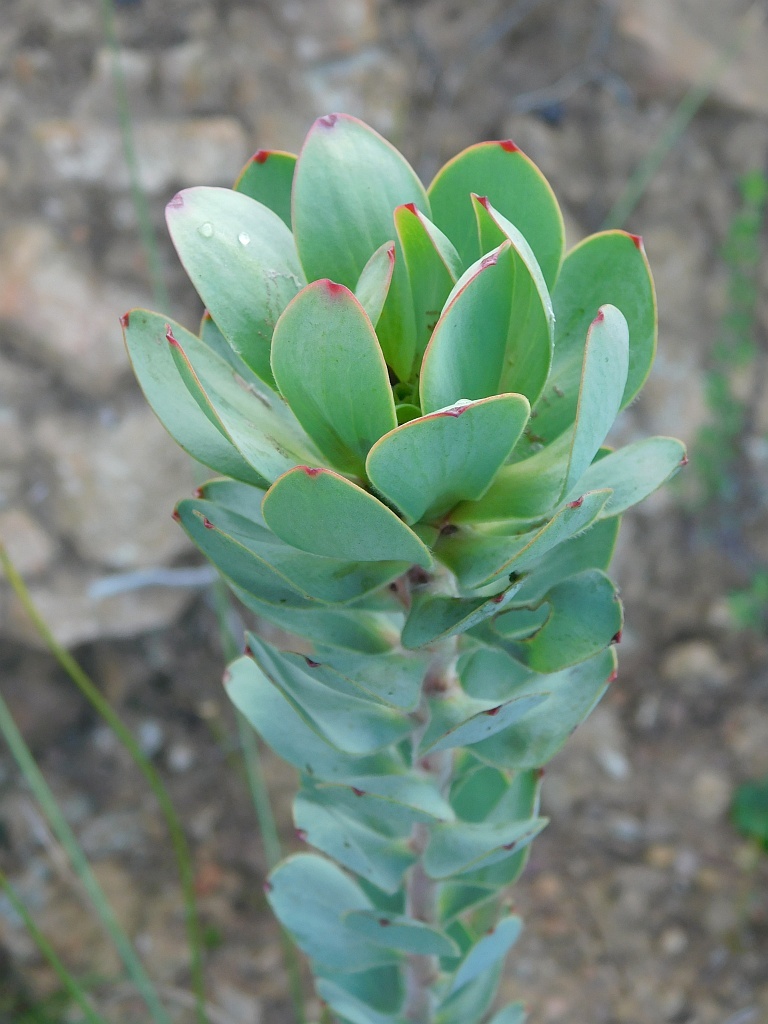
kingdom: Plantae
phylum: Tracheophyta
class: Magnoliopsida
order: Proteales
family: Proteaceae
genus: Leucadendron
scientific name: Leucadendron elimense
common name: Elim conebush
